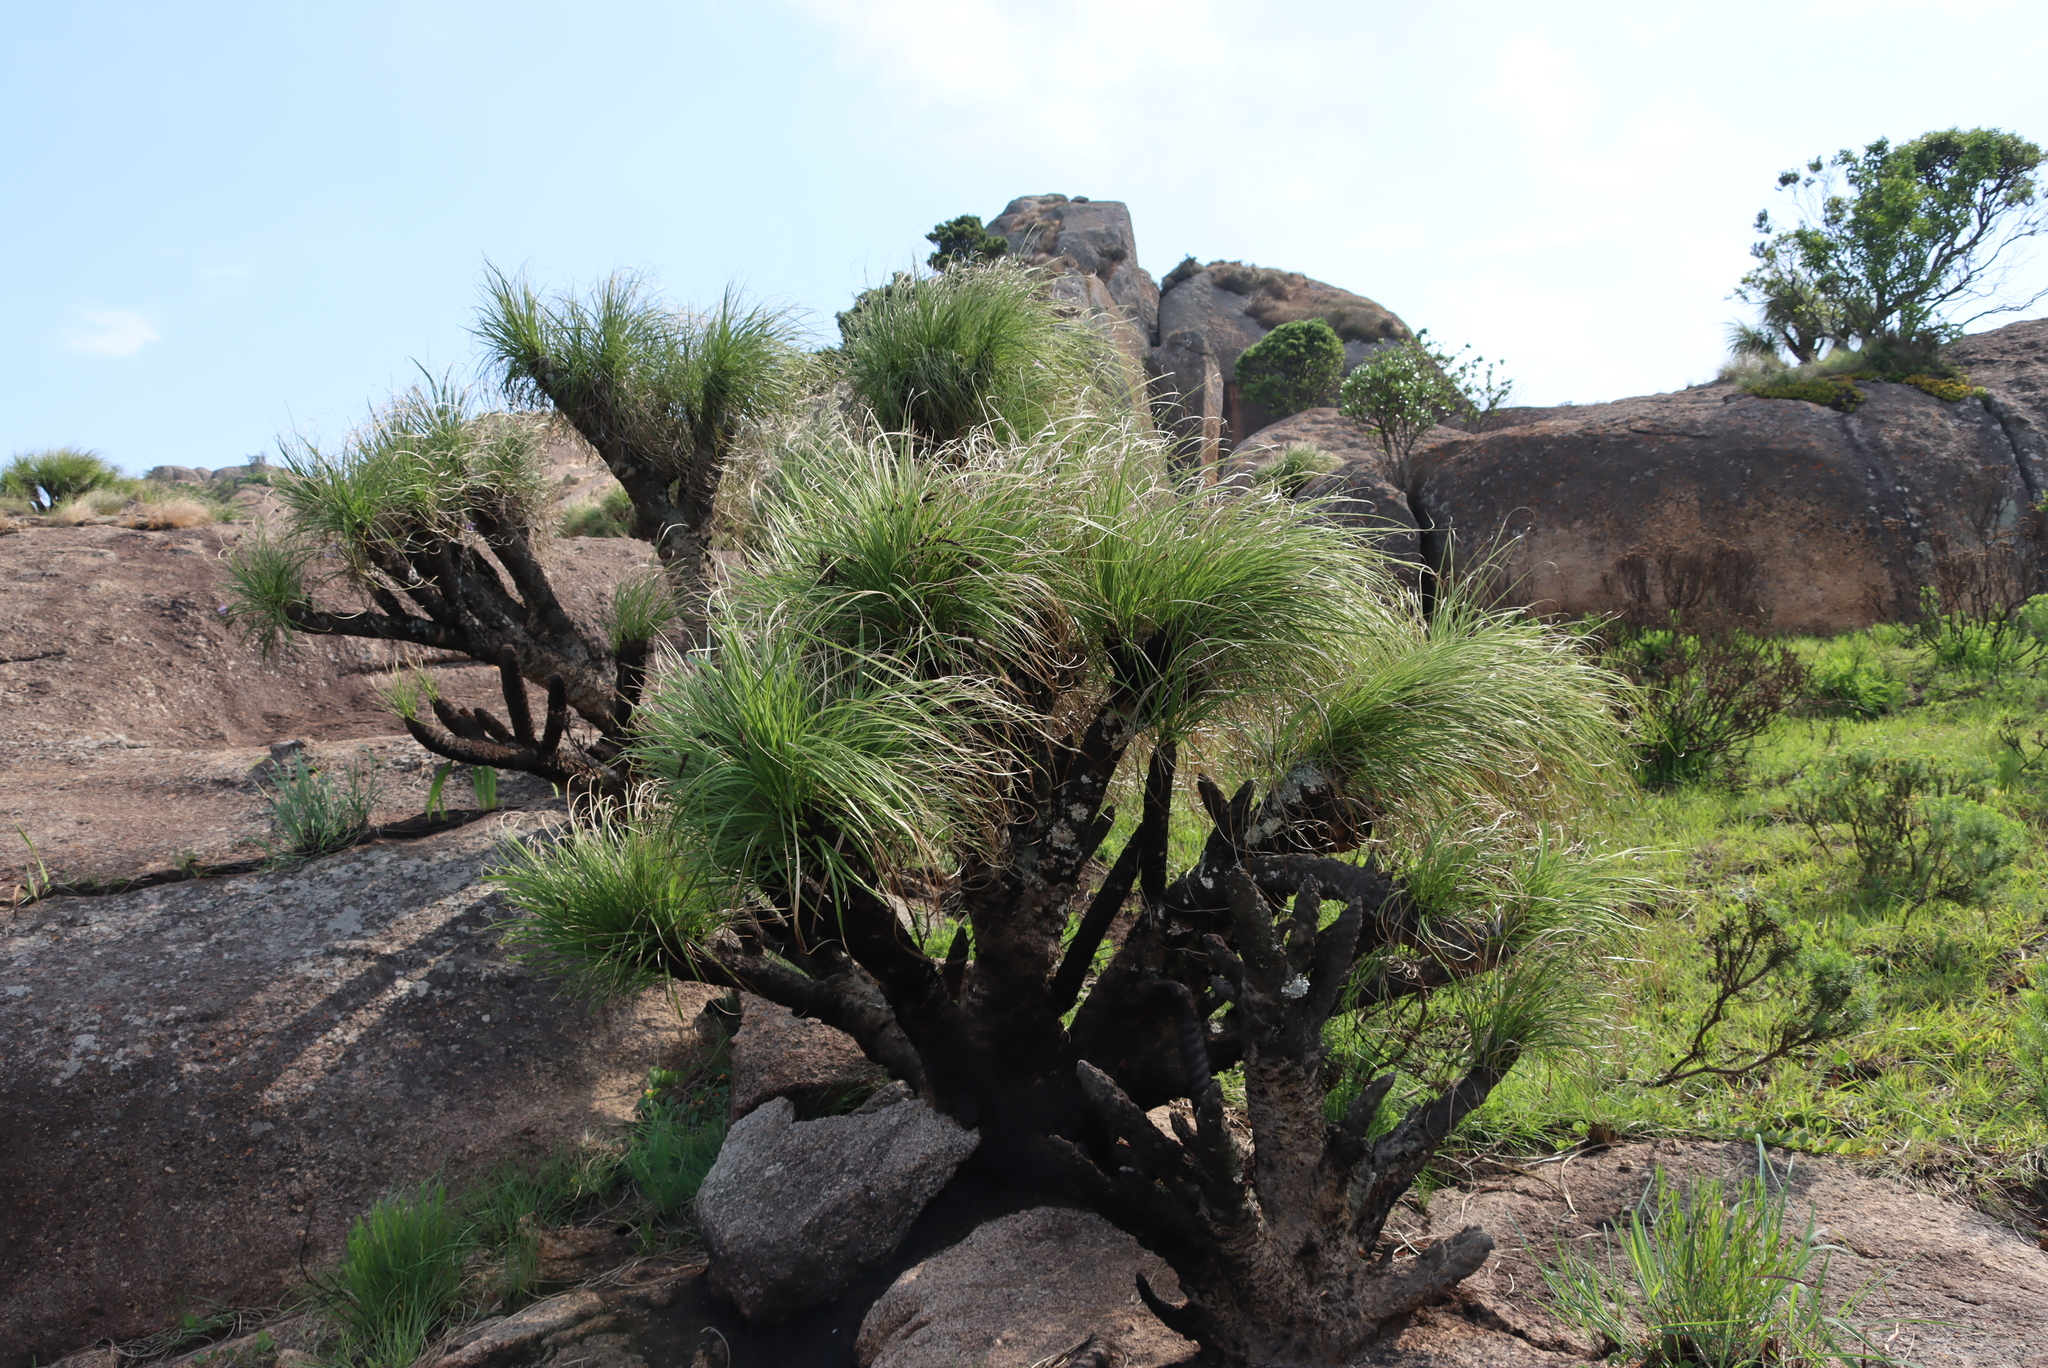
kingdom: Plantae
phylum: Tracheophyta
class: Liliopsida
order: Pandanales
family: Velloziaceae
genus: Xerophyta
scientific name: Xerophyta retinervis
